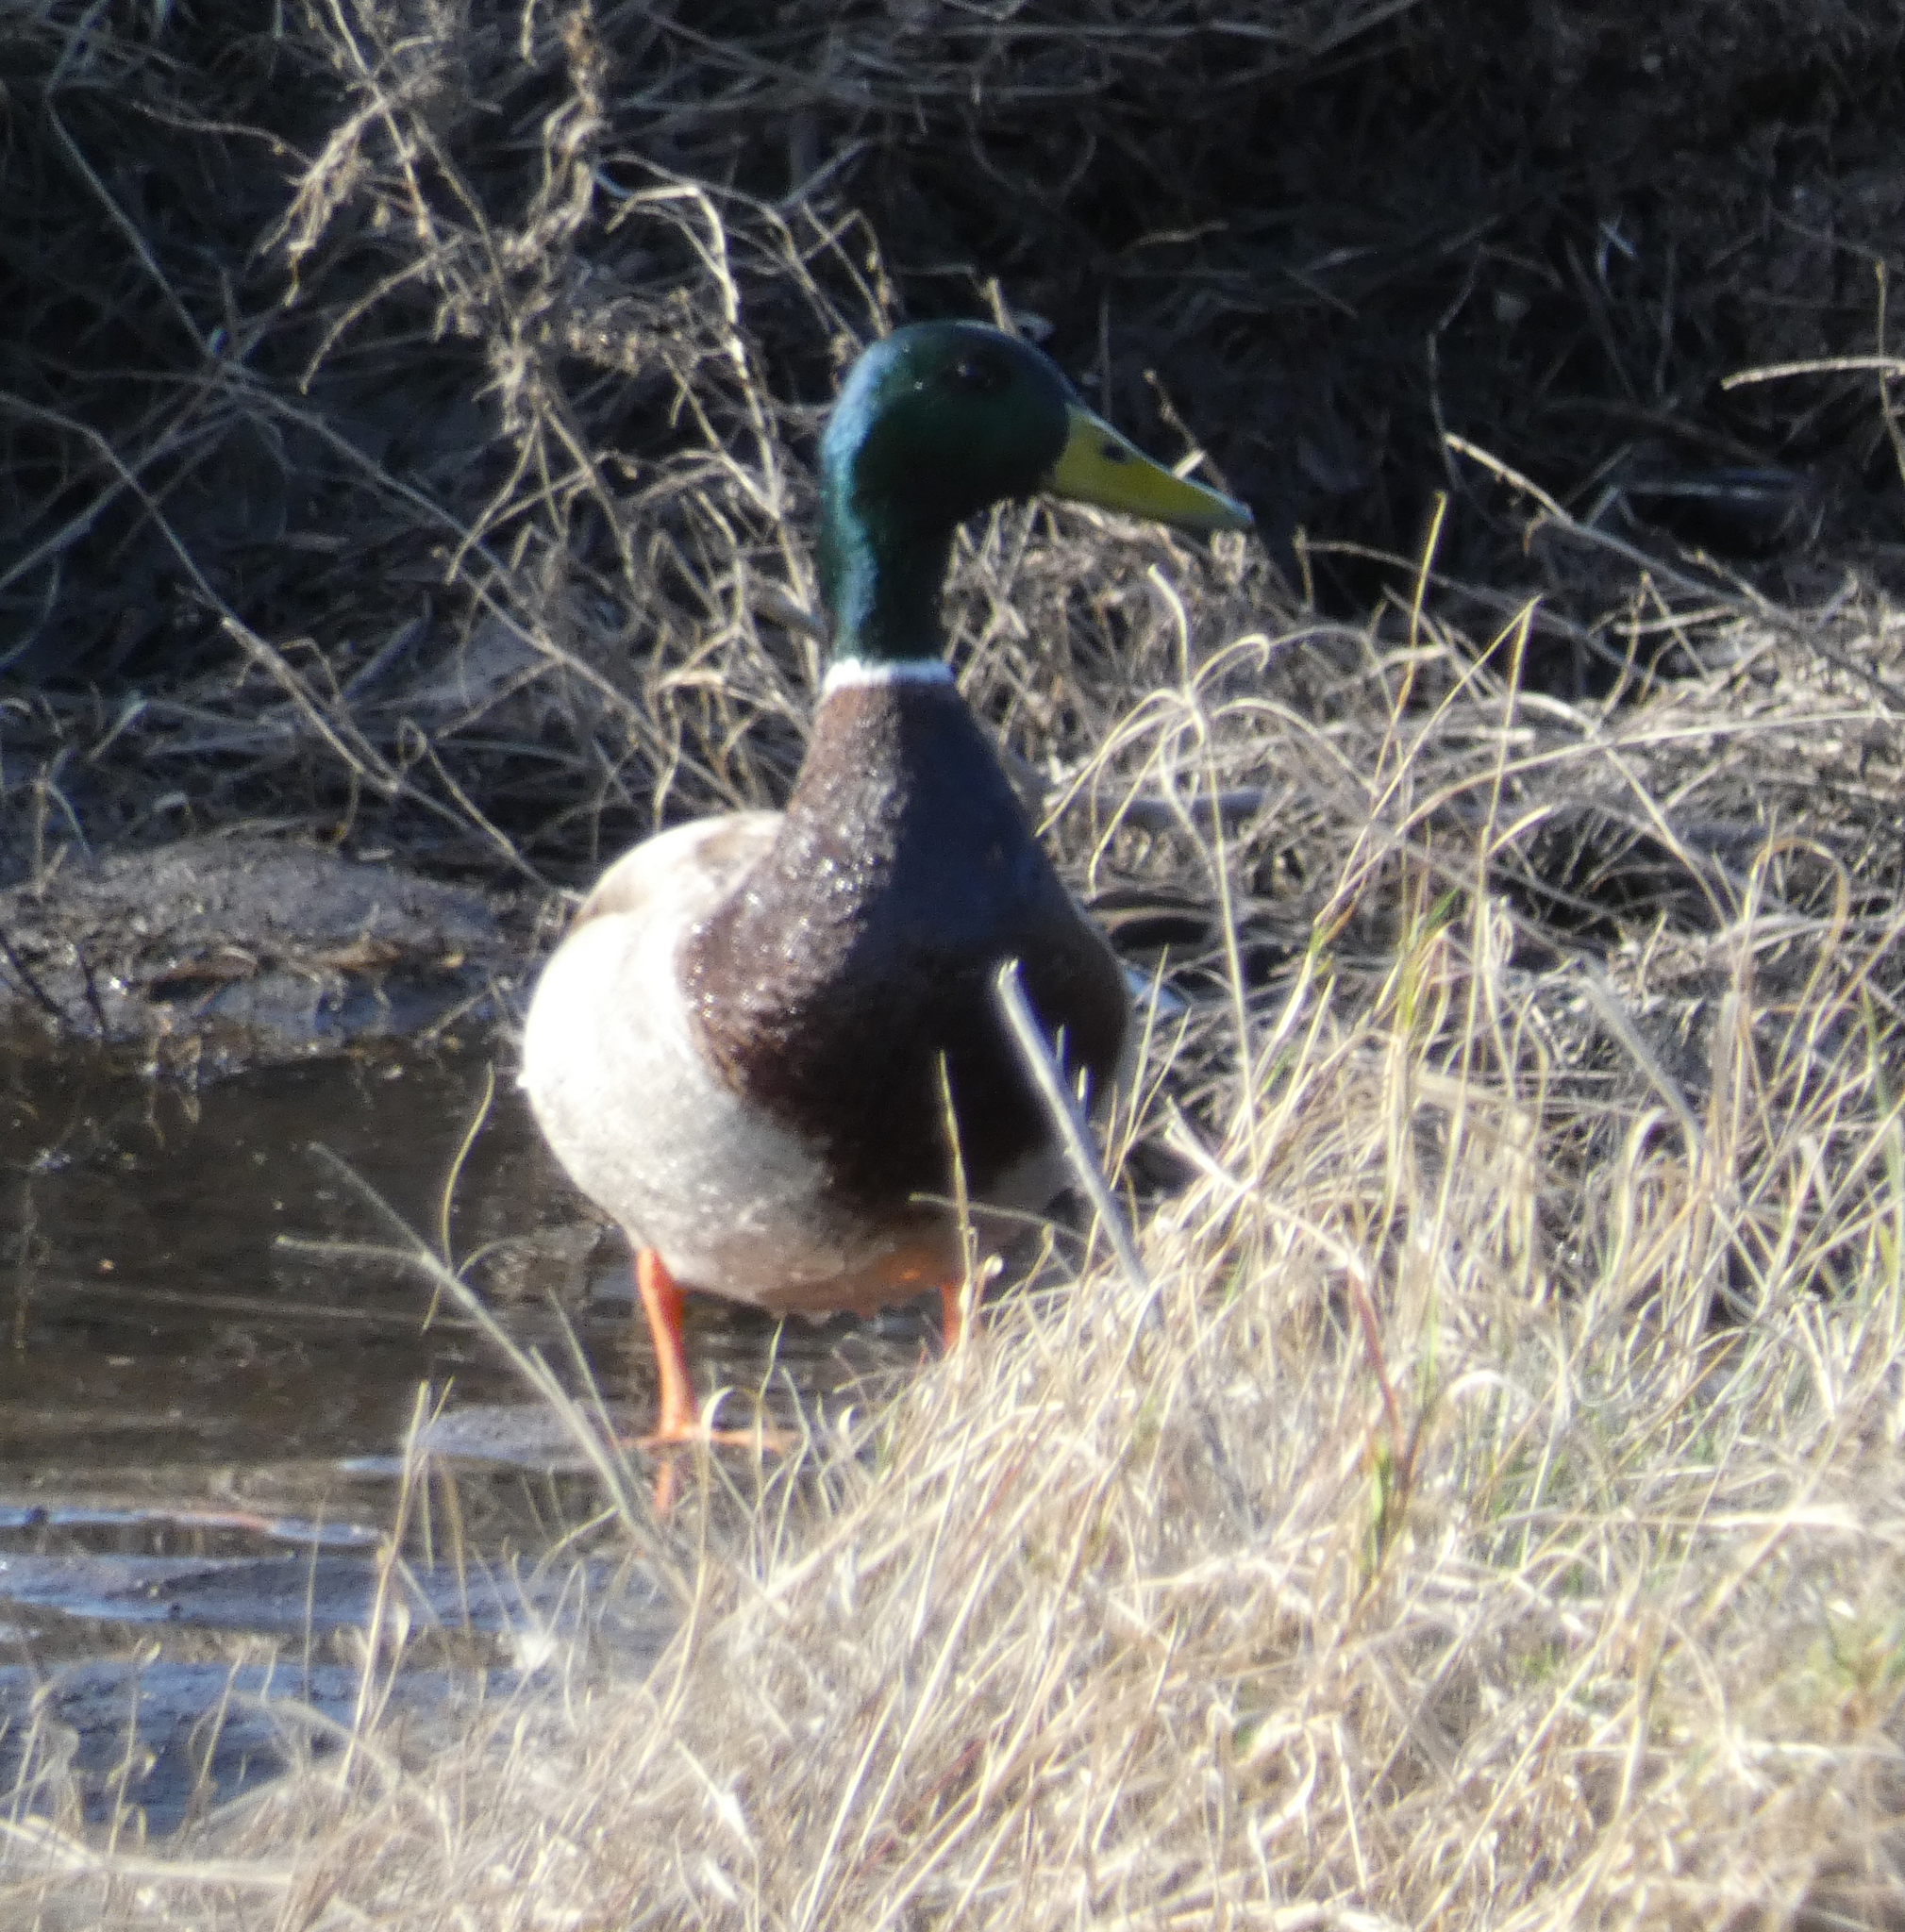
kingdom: Animalia
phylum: Chordata
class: Aves
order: Anseriformes
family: Anatidae
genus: Anas
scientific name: Anas platyrhynchos
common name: Mallard
